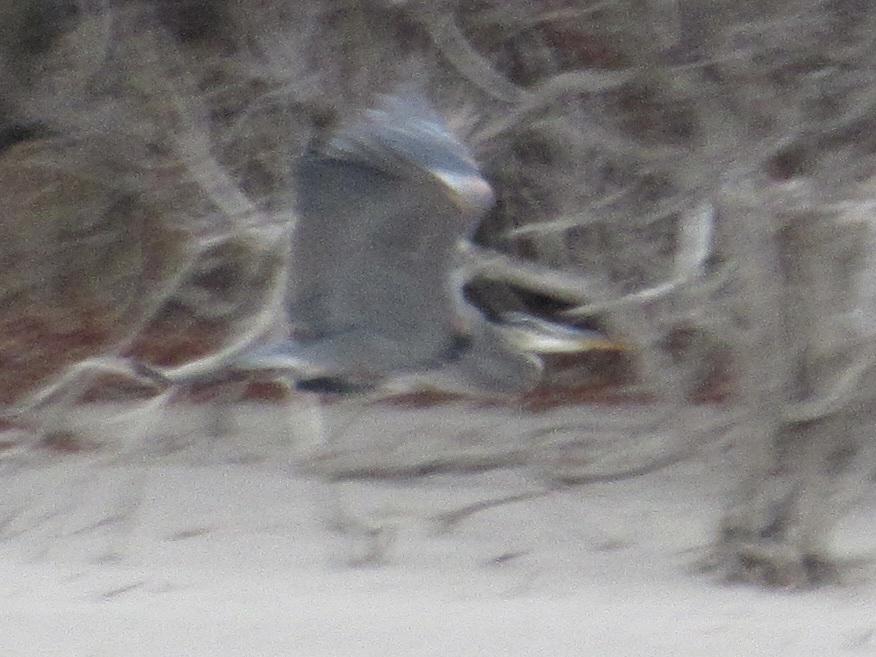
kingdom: Animalia
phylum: Chordata
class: Aves
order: Pelecaniformes
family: Ardeidae
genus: Ardea
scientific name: Ardea herodias
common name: Great blue heron
